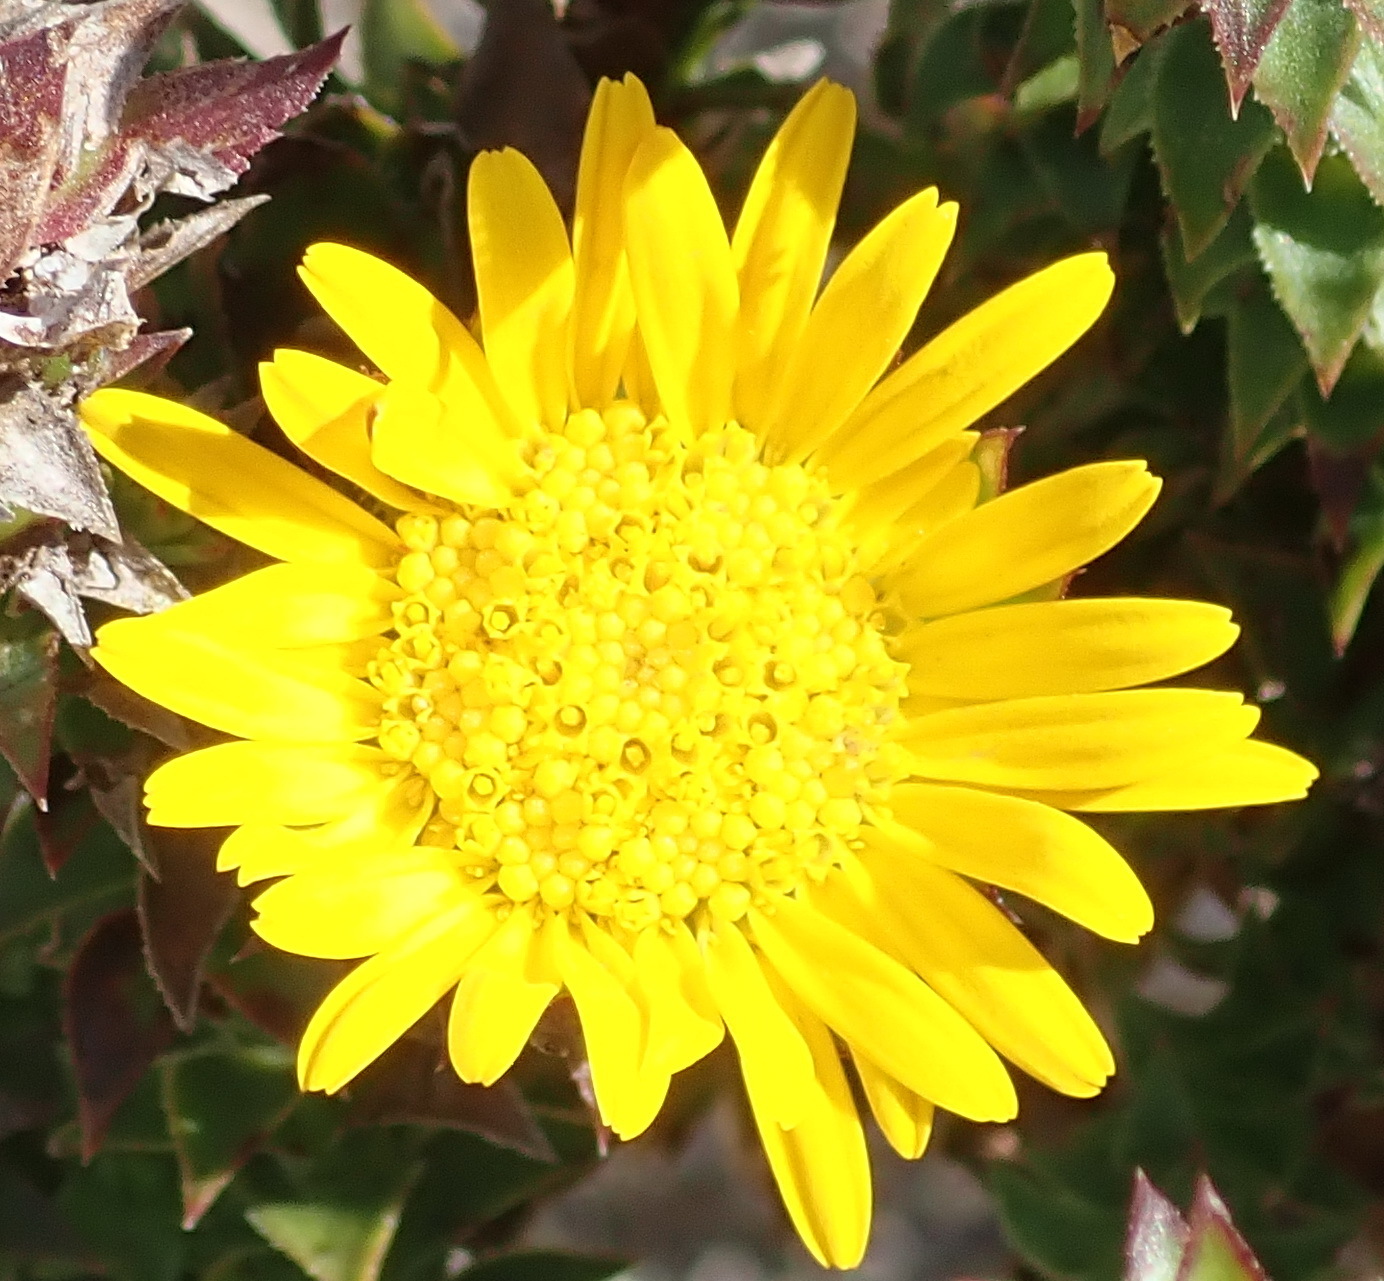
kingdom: Plantae
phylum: Tracheophyta
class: Magnoliopsida
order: Asterales
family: Asteraceae
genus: Oedera
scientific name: Oedera imbricata
